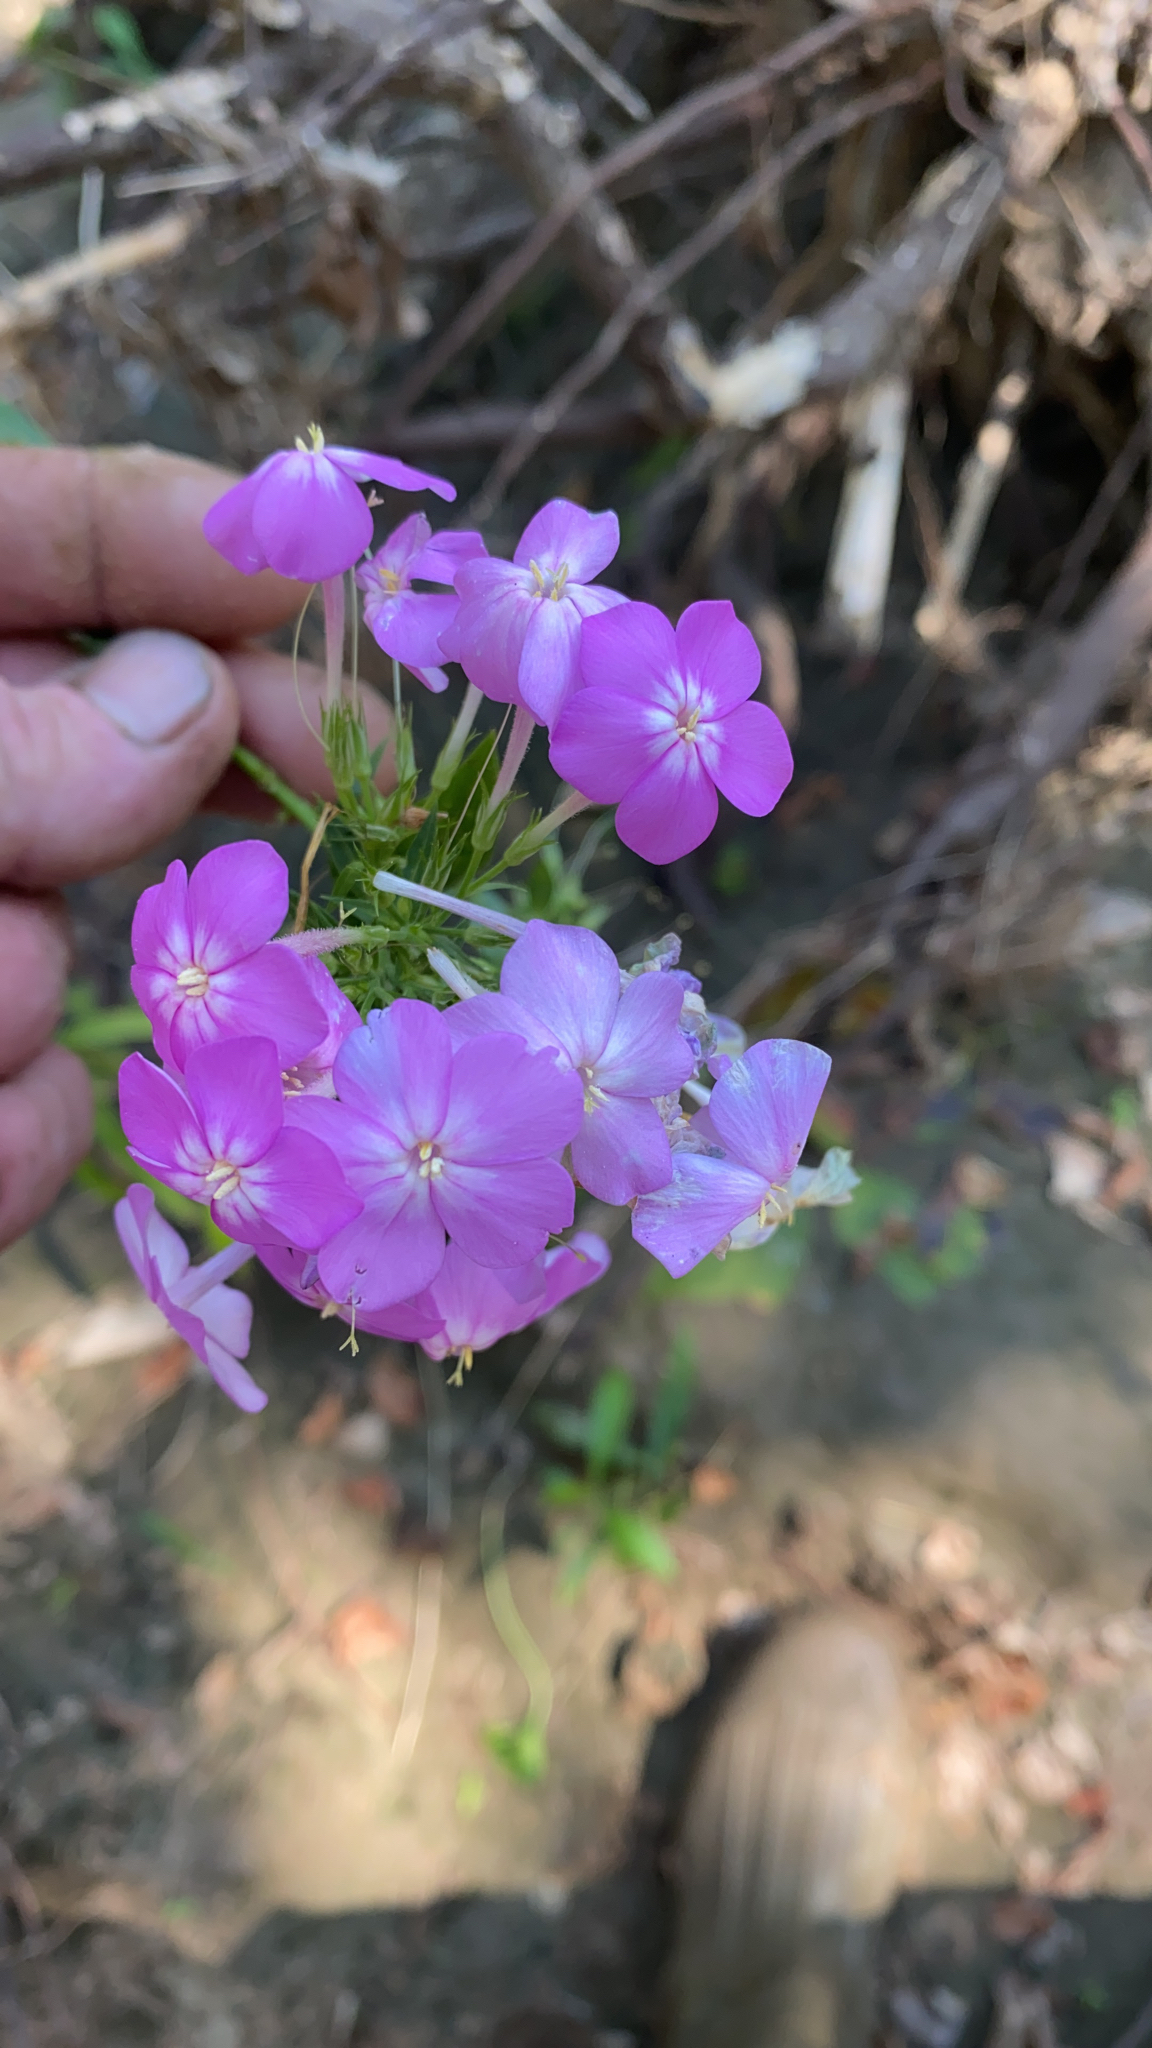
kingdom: Plantae
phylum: Tracheophyta
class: Magnoliopsida
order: Ericales
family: Polemoniaceae
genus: Phlox
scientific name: Phlox paniculata
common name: Fall phlox
